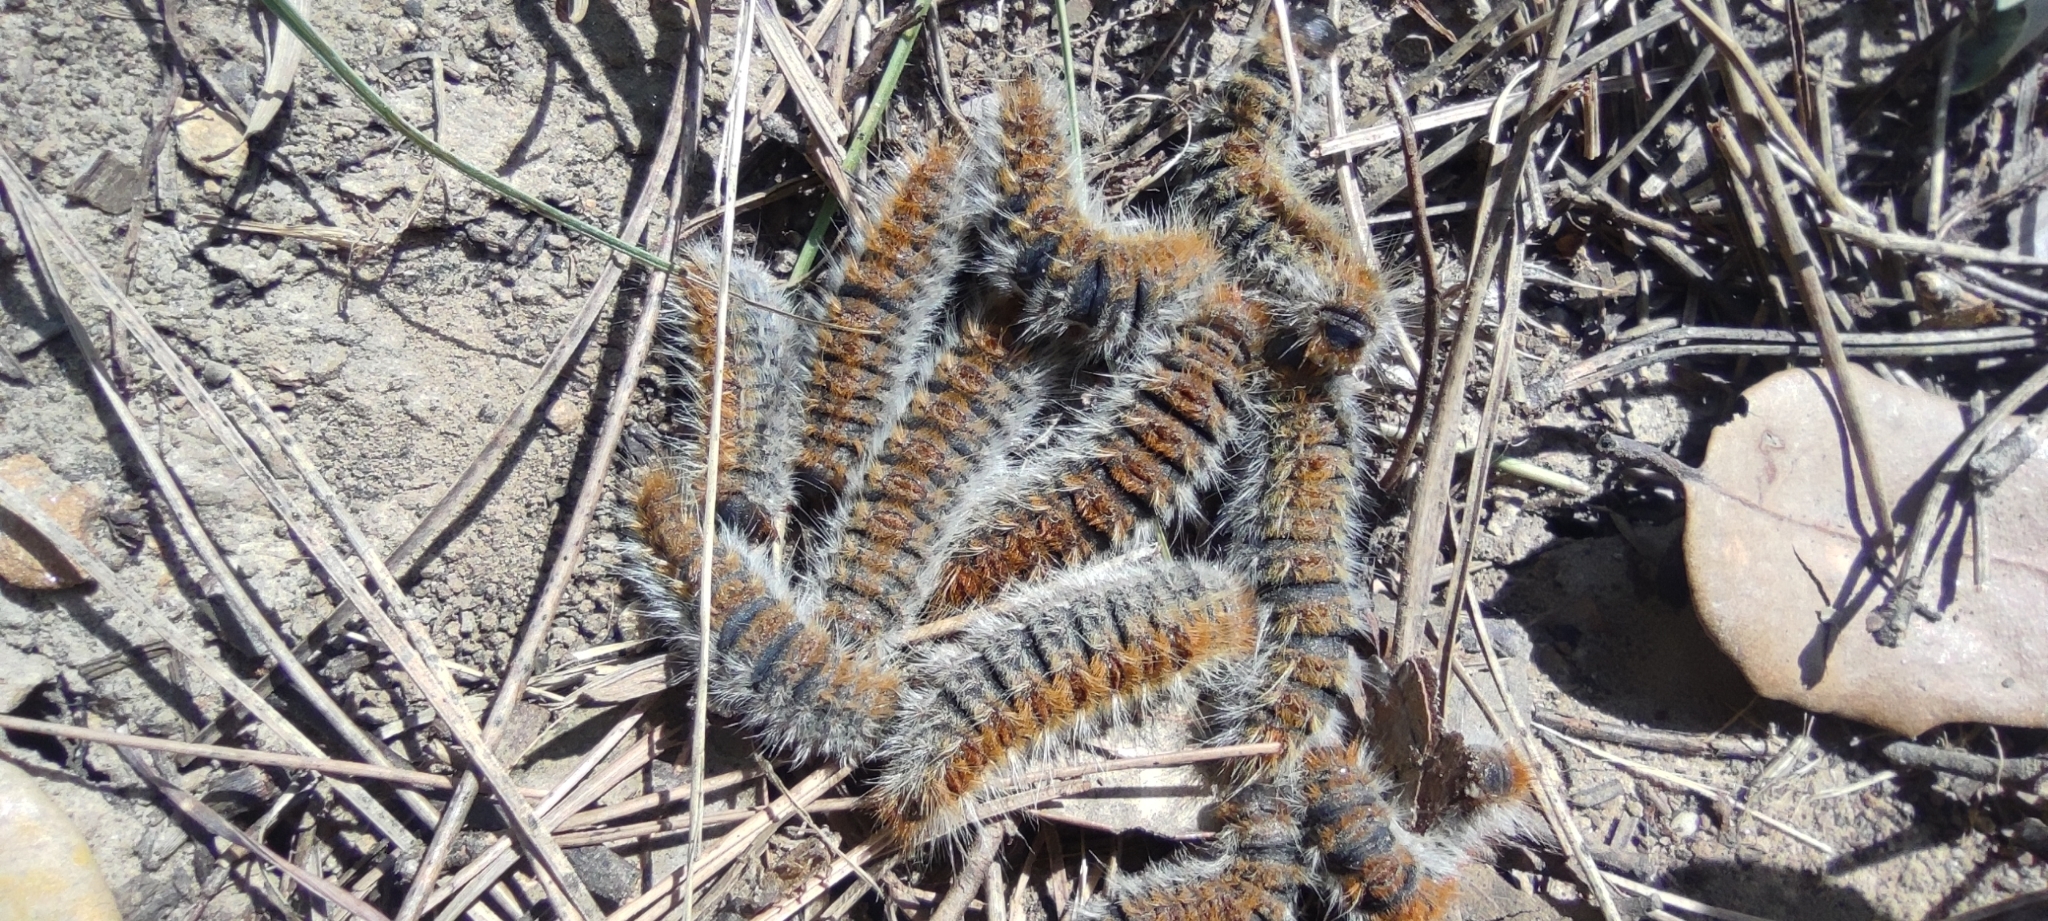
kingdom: Animalia
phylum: Arthropoda
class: Insecta
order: Lepidoptera
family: Notodontidae
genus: Thaumetopoea
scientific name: Thaumetopoea pityocampa
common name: Pine processionary
